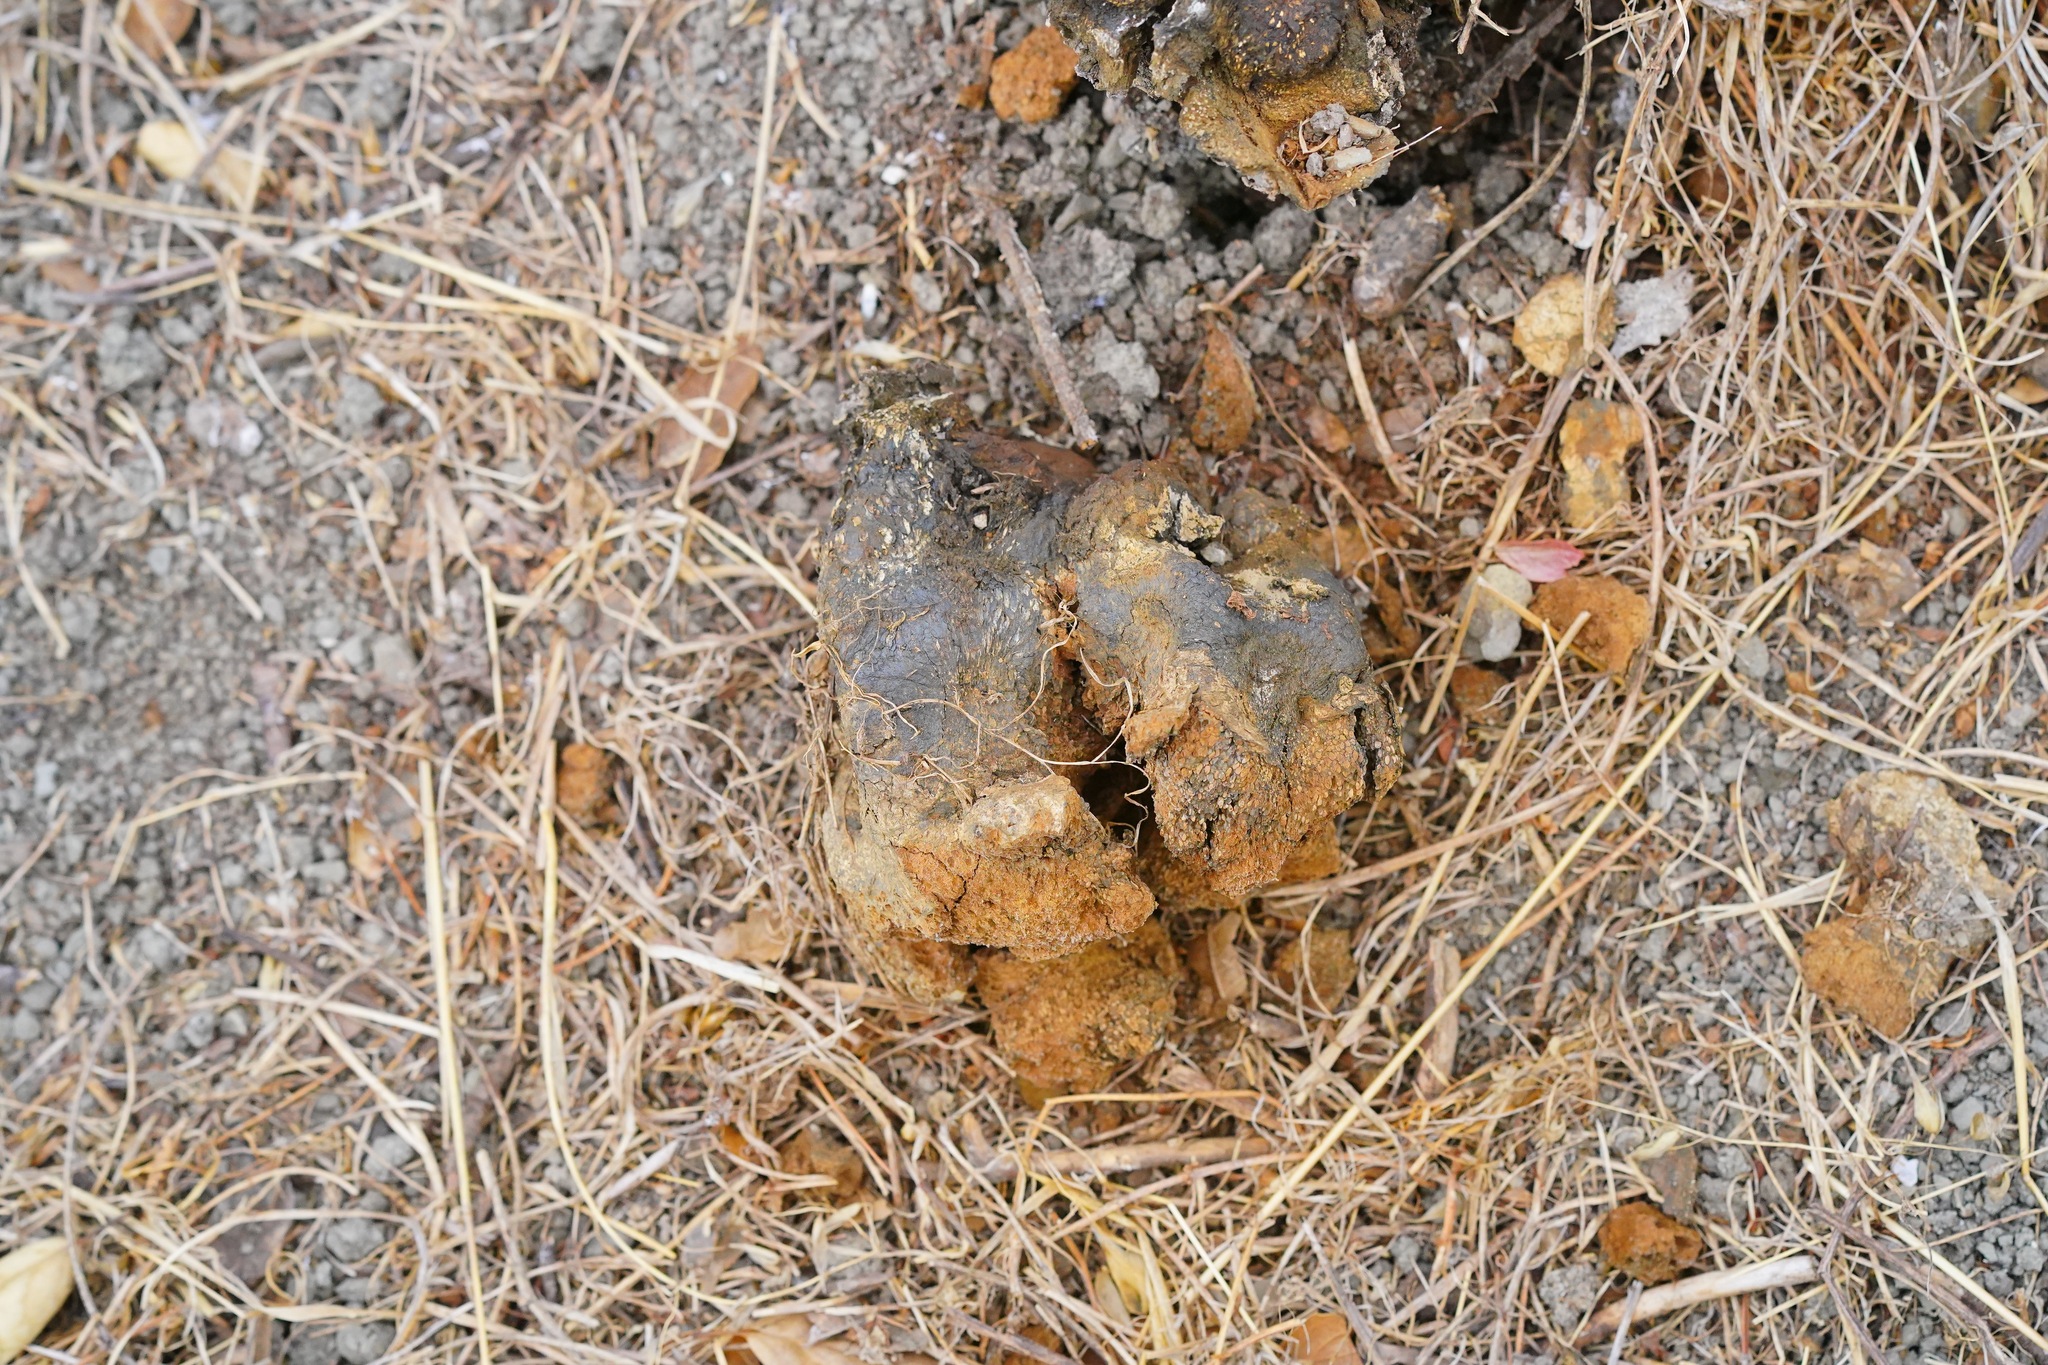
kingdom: Fungi
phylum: Basidiomycota
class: Agaricomycetes
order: Boletales
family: Sclerodermataceae
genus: Pisolithus
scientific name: Pisolithus tinctorius
